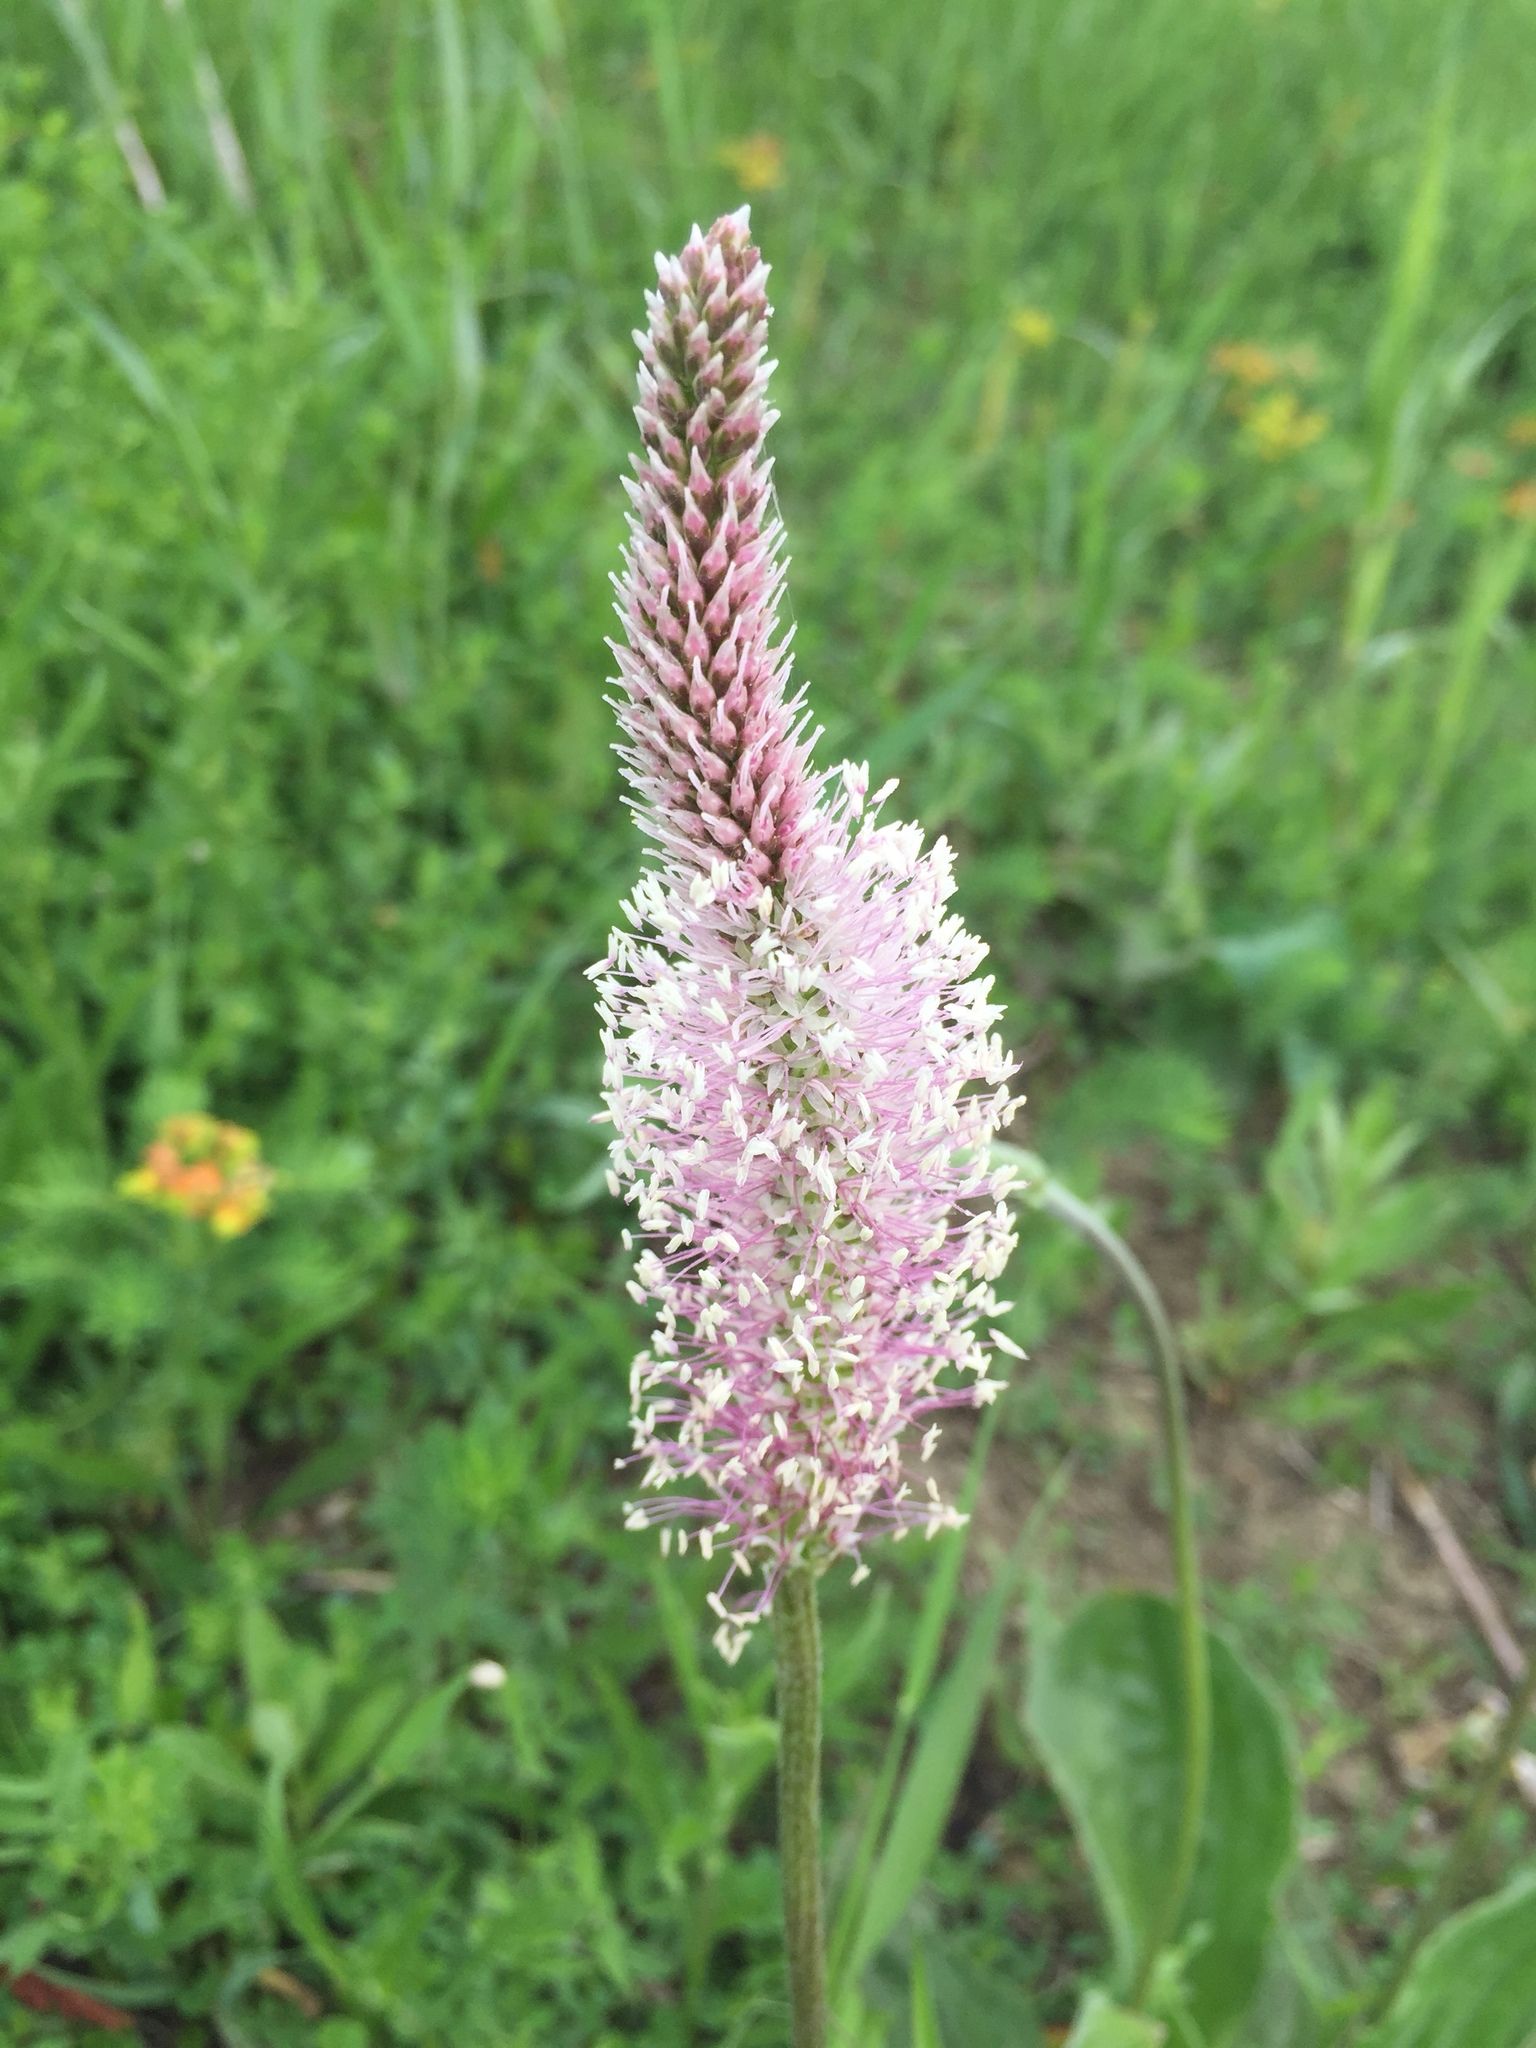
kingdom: Plantae
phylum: Tracheophyta
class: Magnoliopsida
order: Lamiales
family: Plantaginaceae
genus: Plantago
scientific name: Plantago media
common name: Hoary plantain
